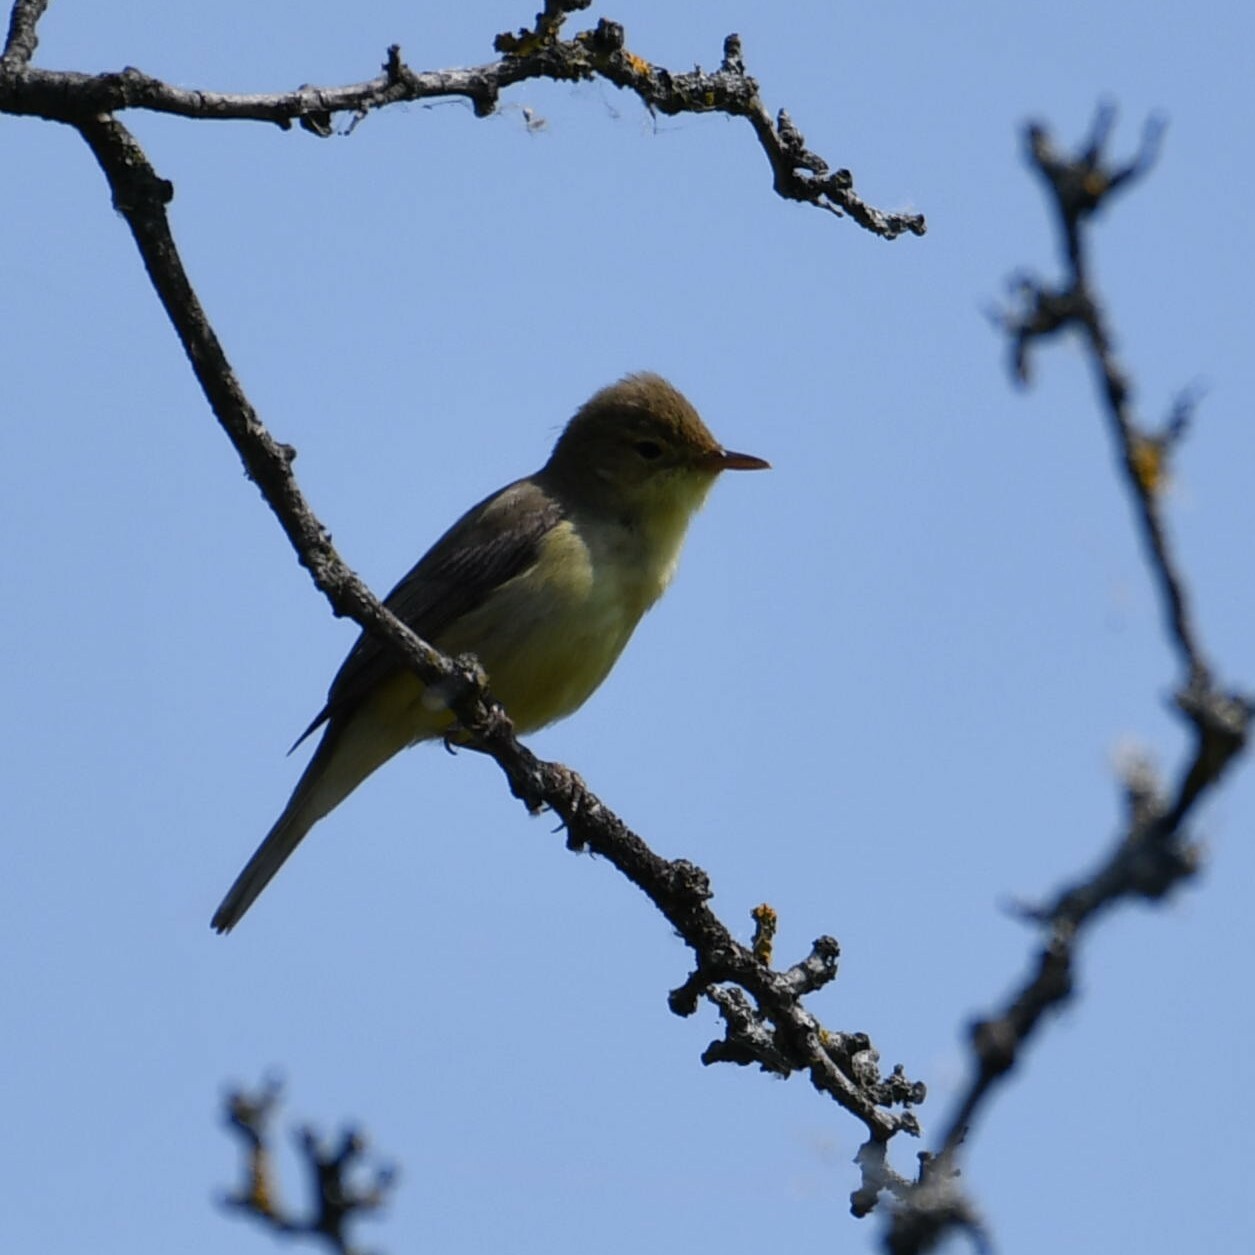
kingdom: Animalia
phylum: Chordata
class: Aves
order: Passeriformes
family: Acrocephalidae
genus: Hippolais
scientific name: Hippolais polyglotta
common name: Melodious warbler
